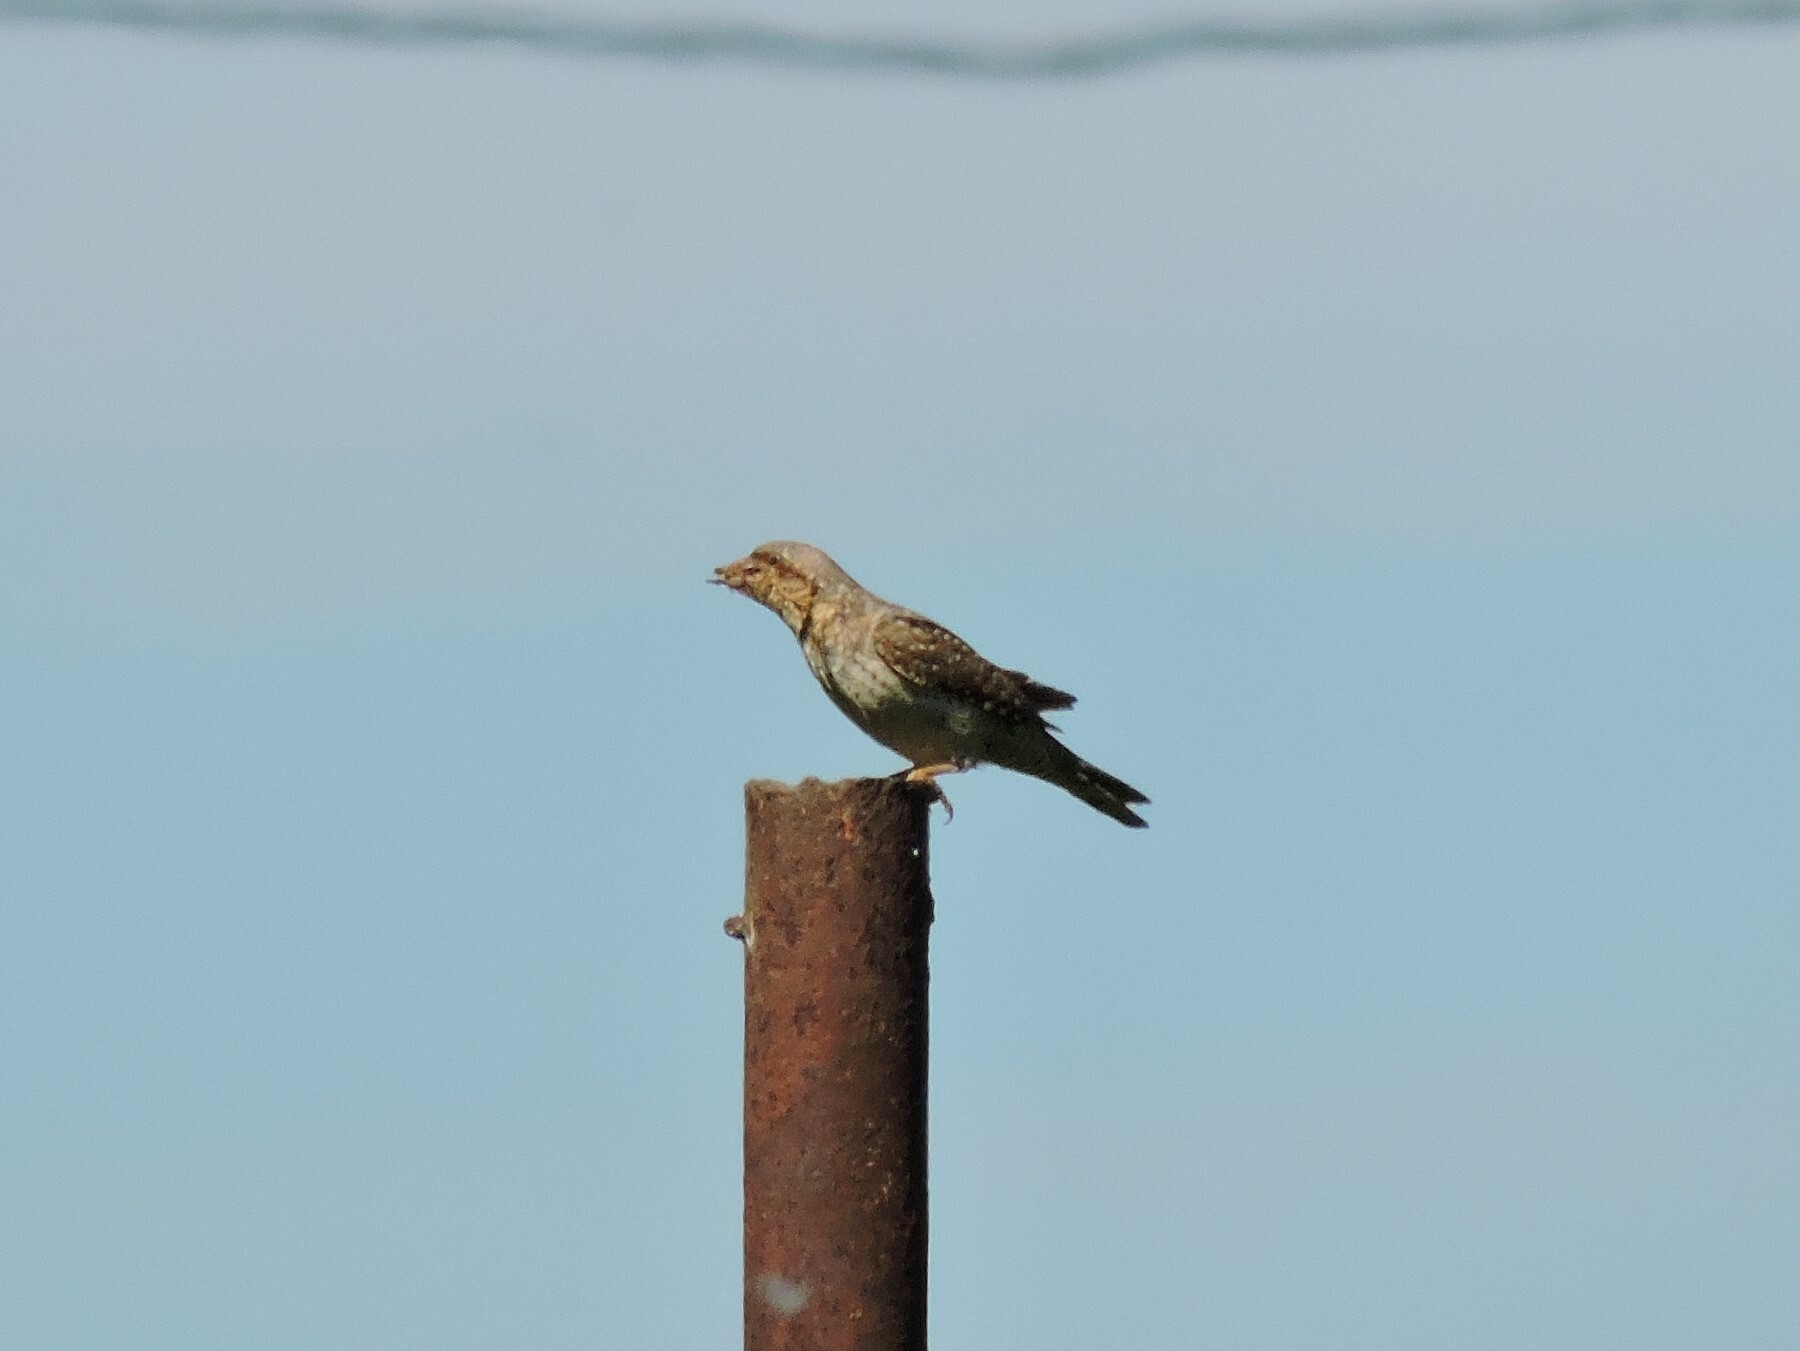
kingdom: Animalia
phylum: Chordata
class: Aves
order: Piciformes
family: Picidae
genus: Jynx
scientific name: Jynx torquilla
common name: Eurasian wryneck
